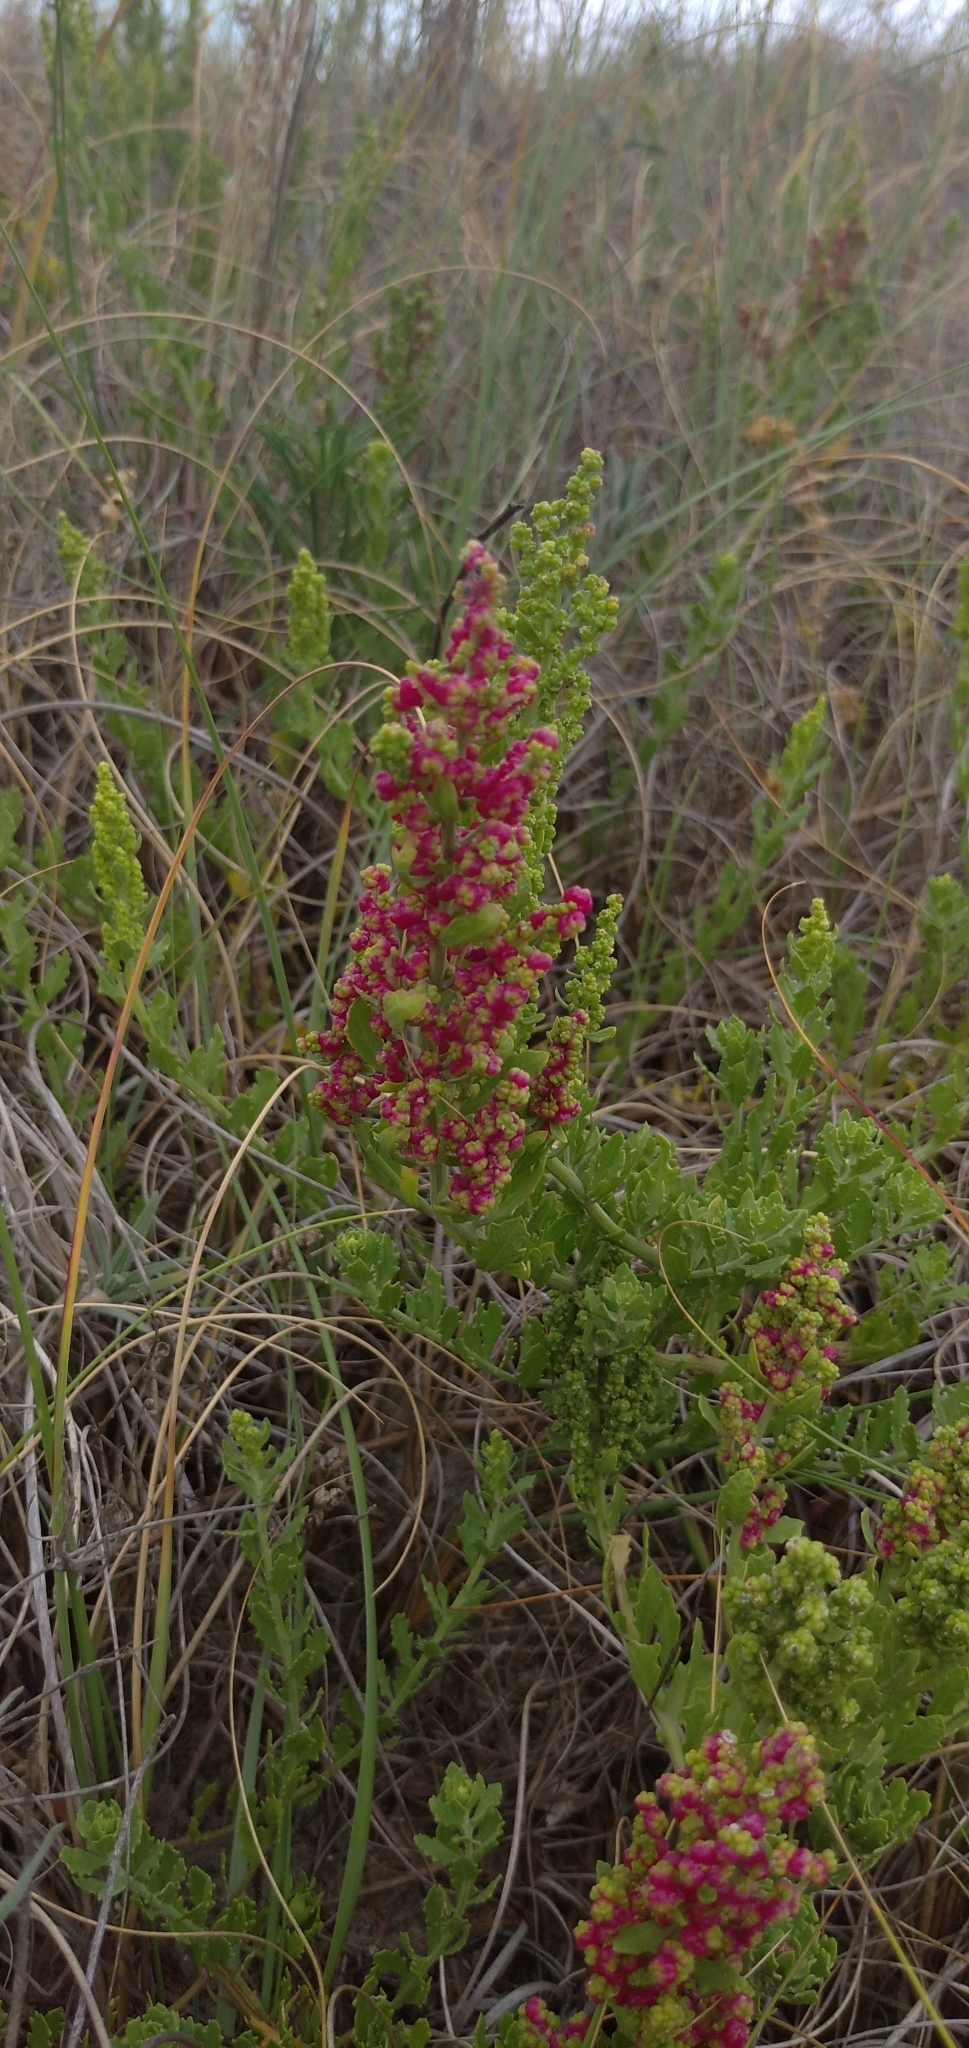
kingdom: Plantae
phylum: Tracheophyta
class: Magnoliopsida
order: Caryophyllales
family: Amaranthaceae
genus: Dysphania
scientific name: Dysphania retusa
